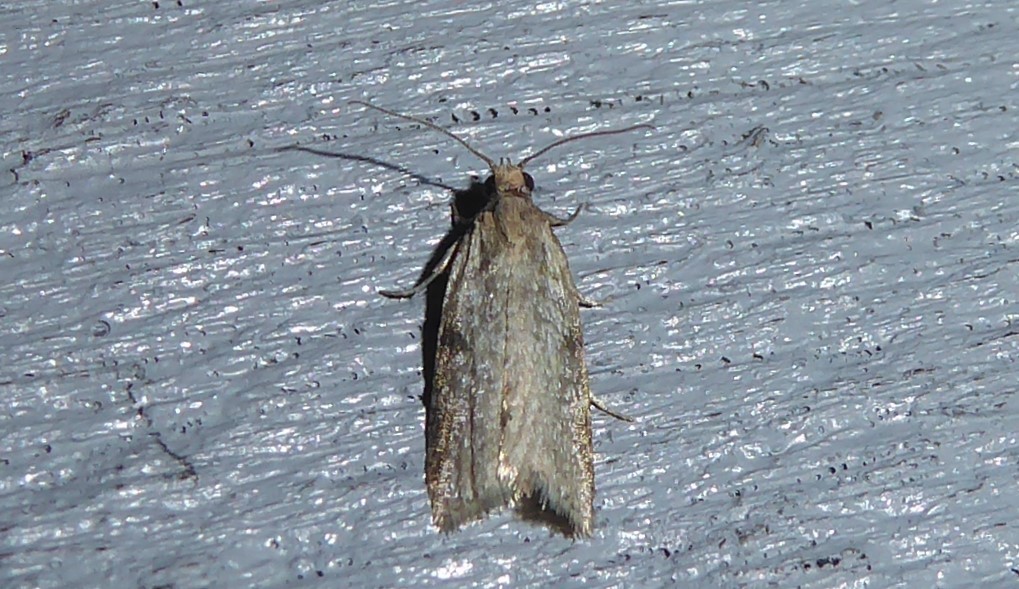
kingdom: Animalia
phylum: Arthropoda
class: Insecta
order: Lepidoptera
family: Tortricidae
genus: Capua
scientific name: Capua semiferana
